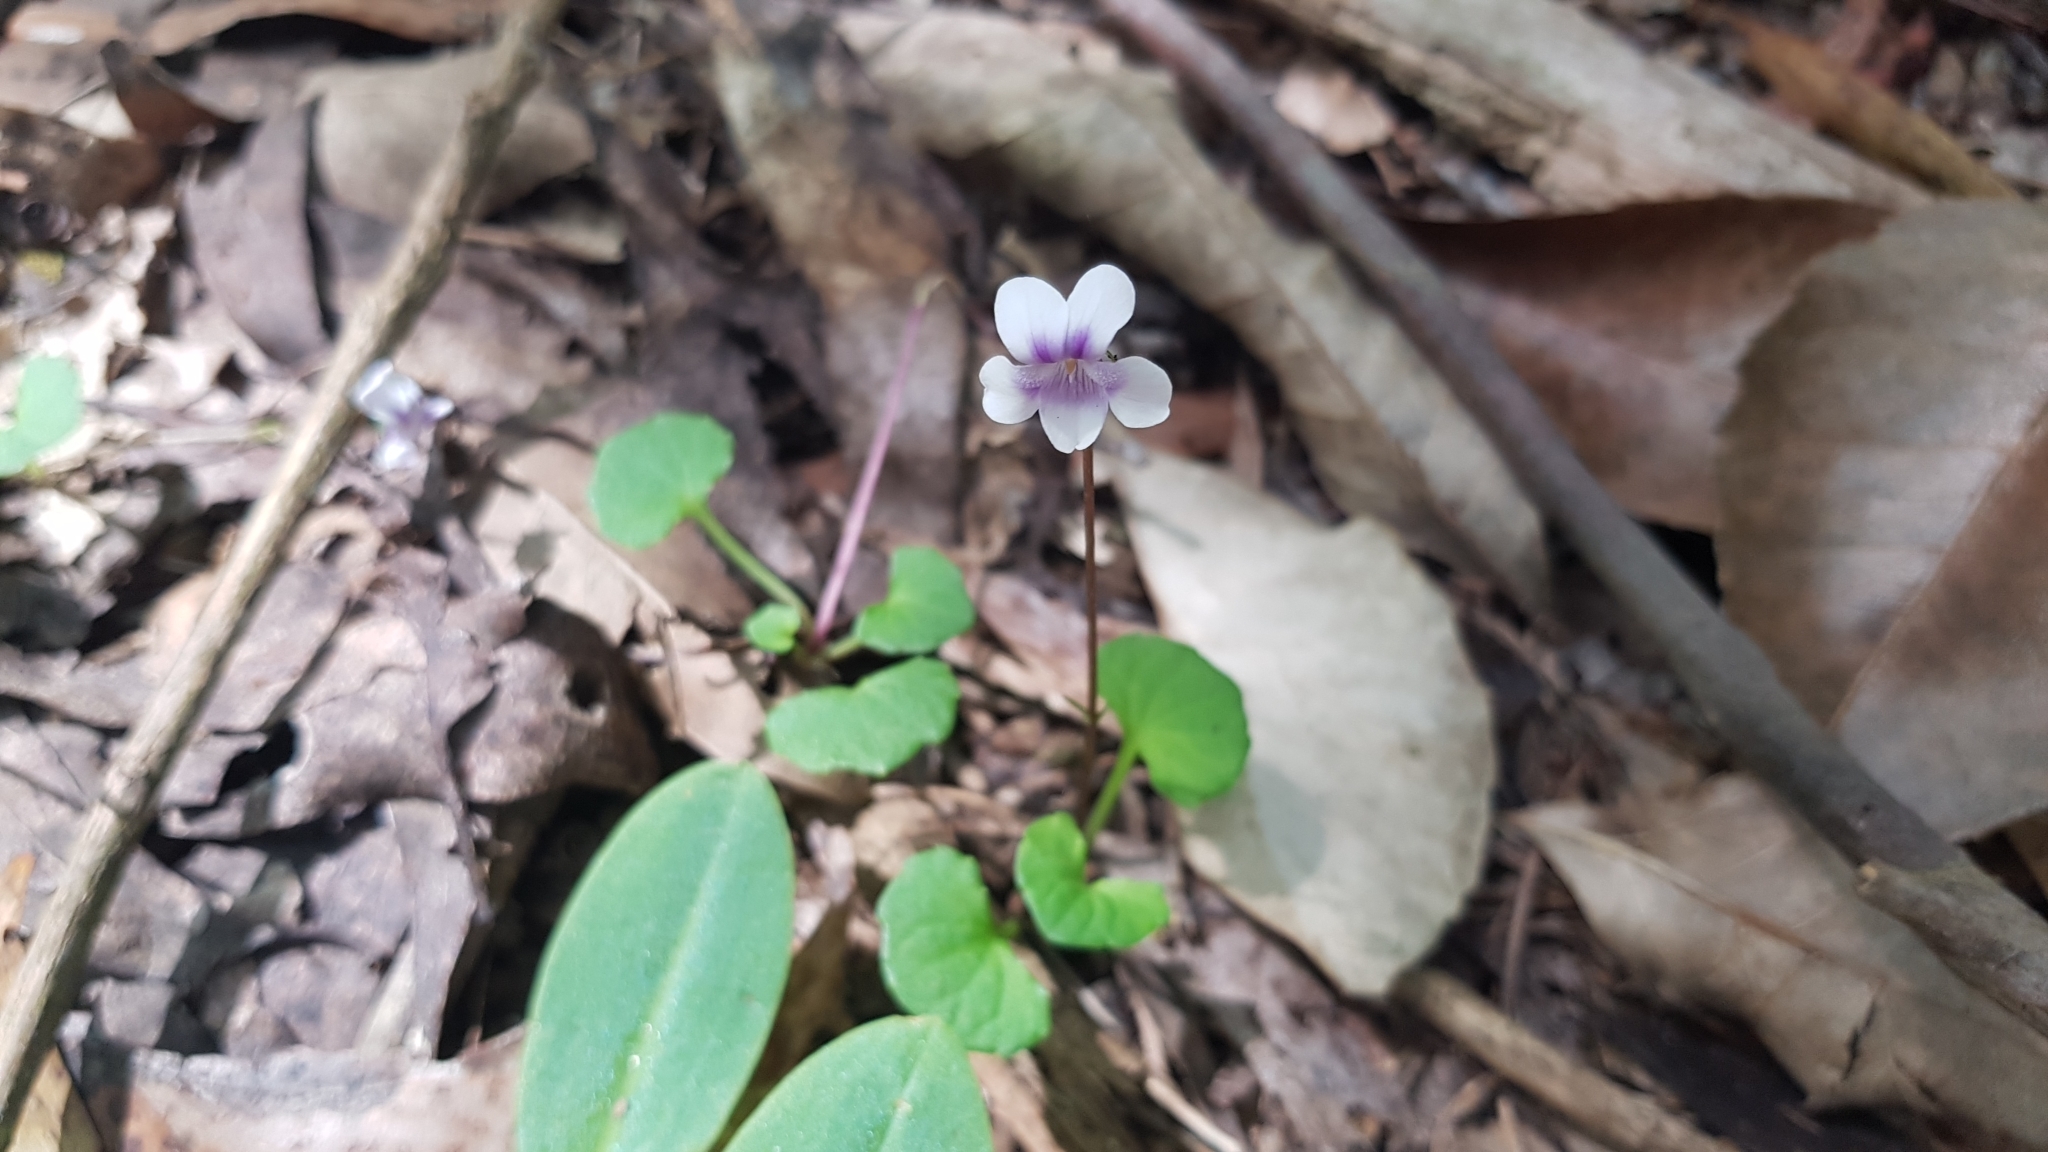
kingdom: Plantae
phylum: Tracheophyta
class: Magnoliopsida
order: Malpighiales
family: Violaceae
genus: Viola
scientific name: Viola hederacea
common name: Australian violet
